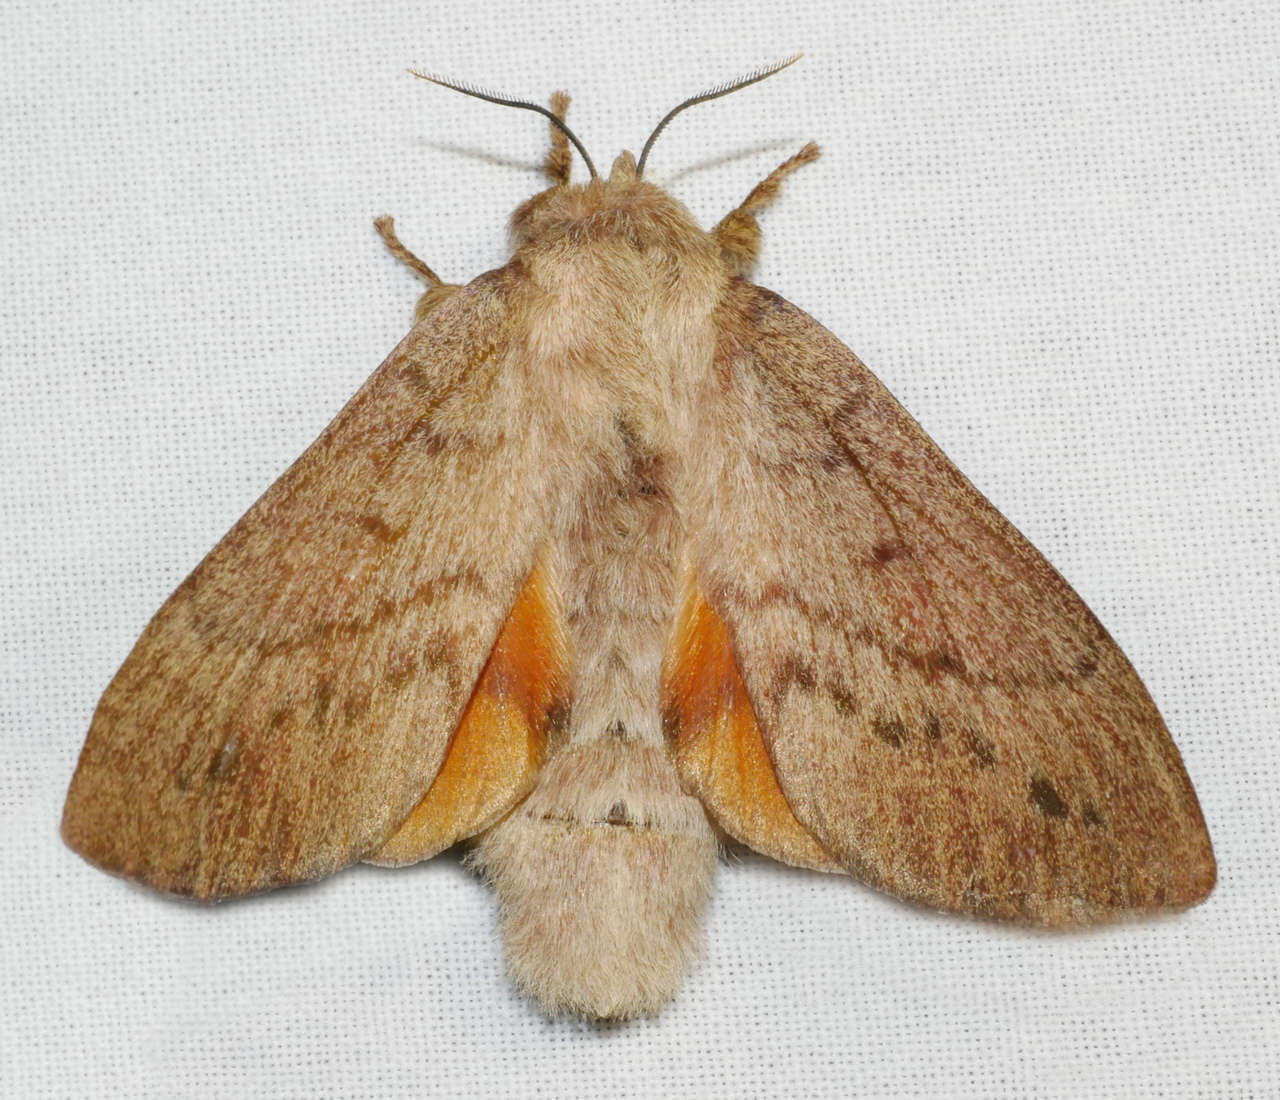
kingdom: Animalia
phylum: Arthropoda
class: Insecta
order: Lepidoptera
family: Lasiocampidae
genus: Entometa
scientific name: Entometa fervens
